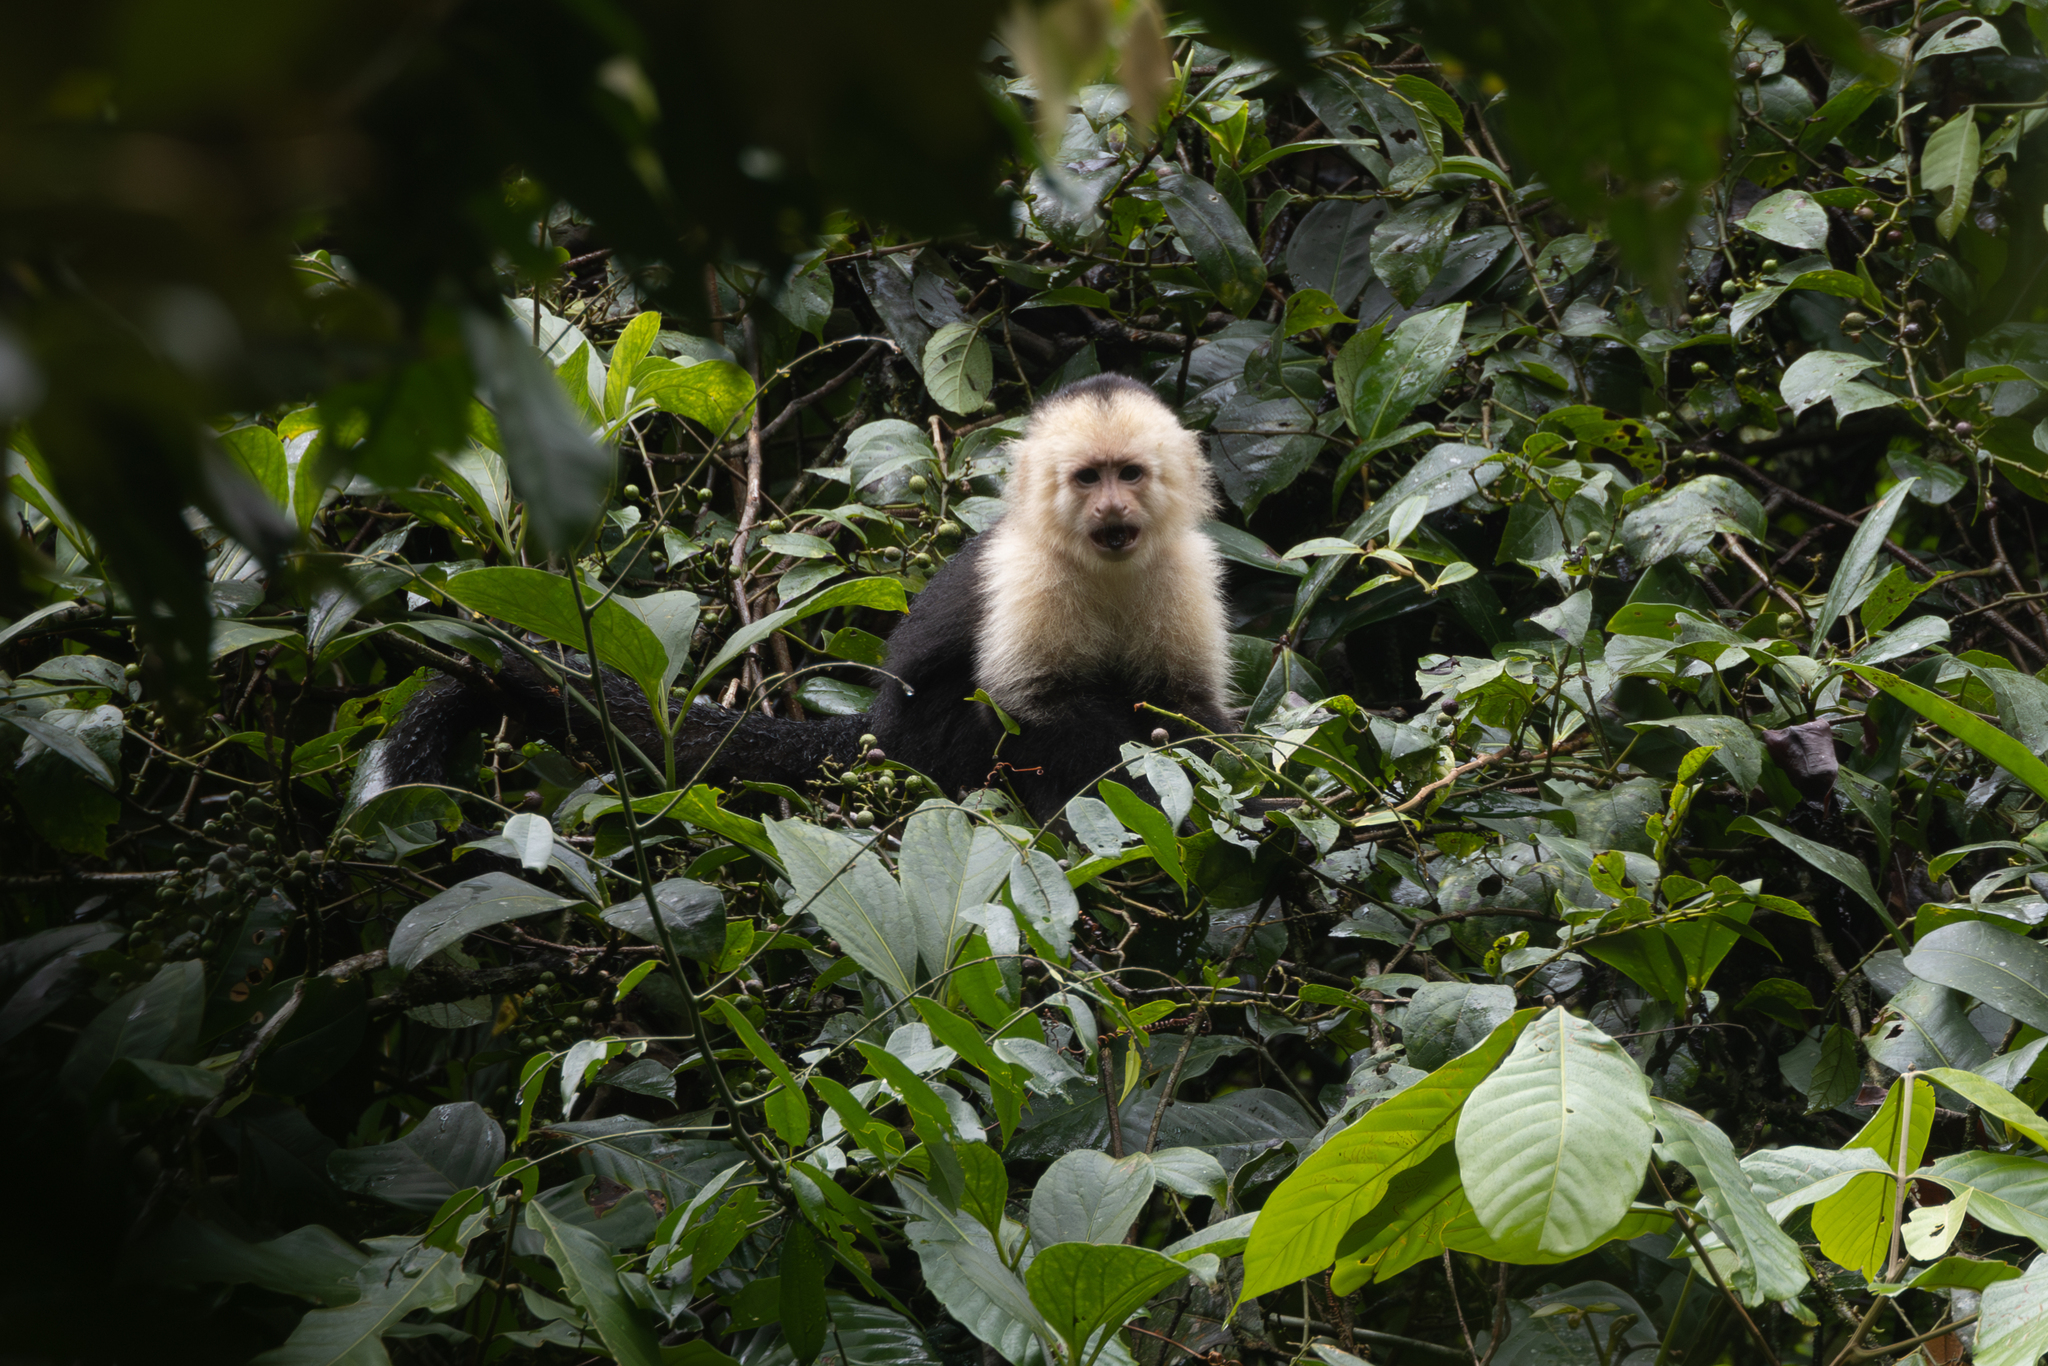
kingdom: Animalia
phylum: Chordata
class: Mammalia
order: Primates
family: Cebidae
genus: Cebus
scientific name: Cebus imitator
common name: Panamanian white-faced capuchin
